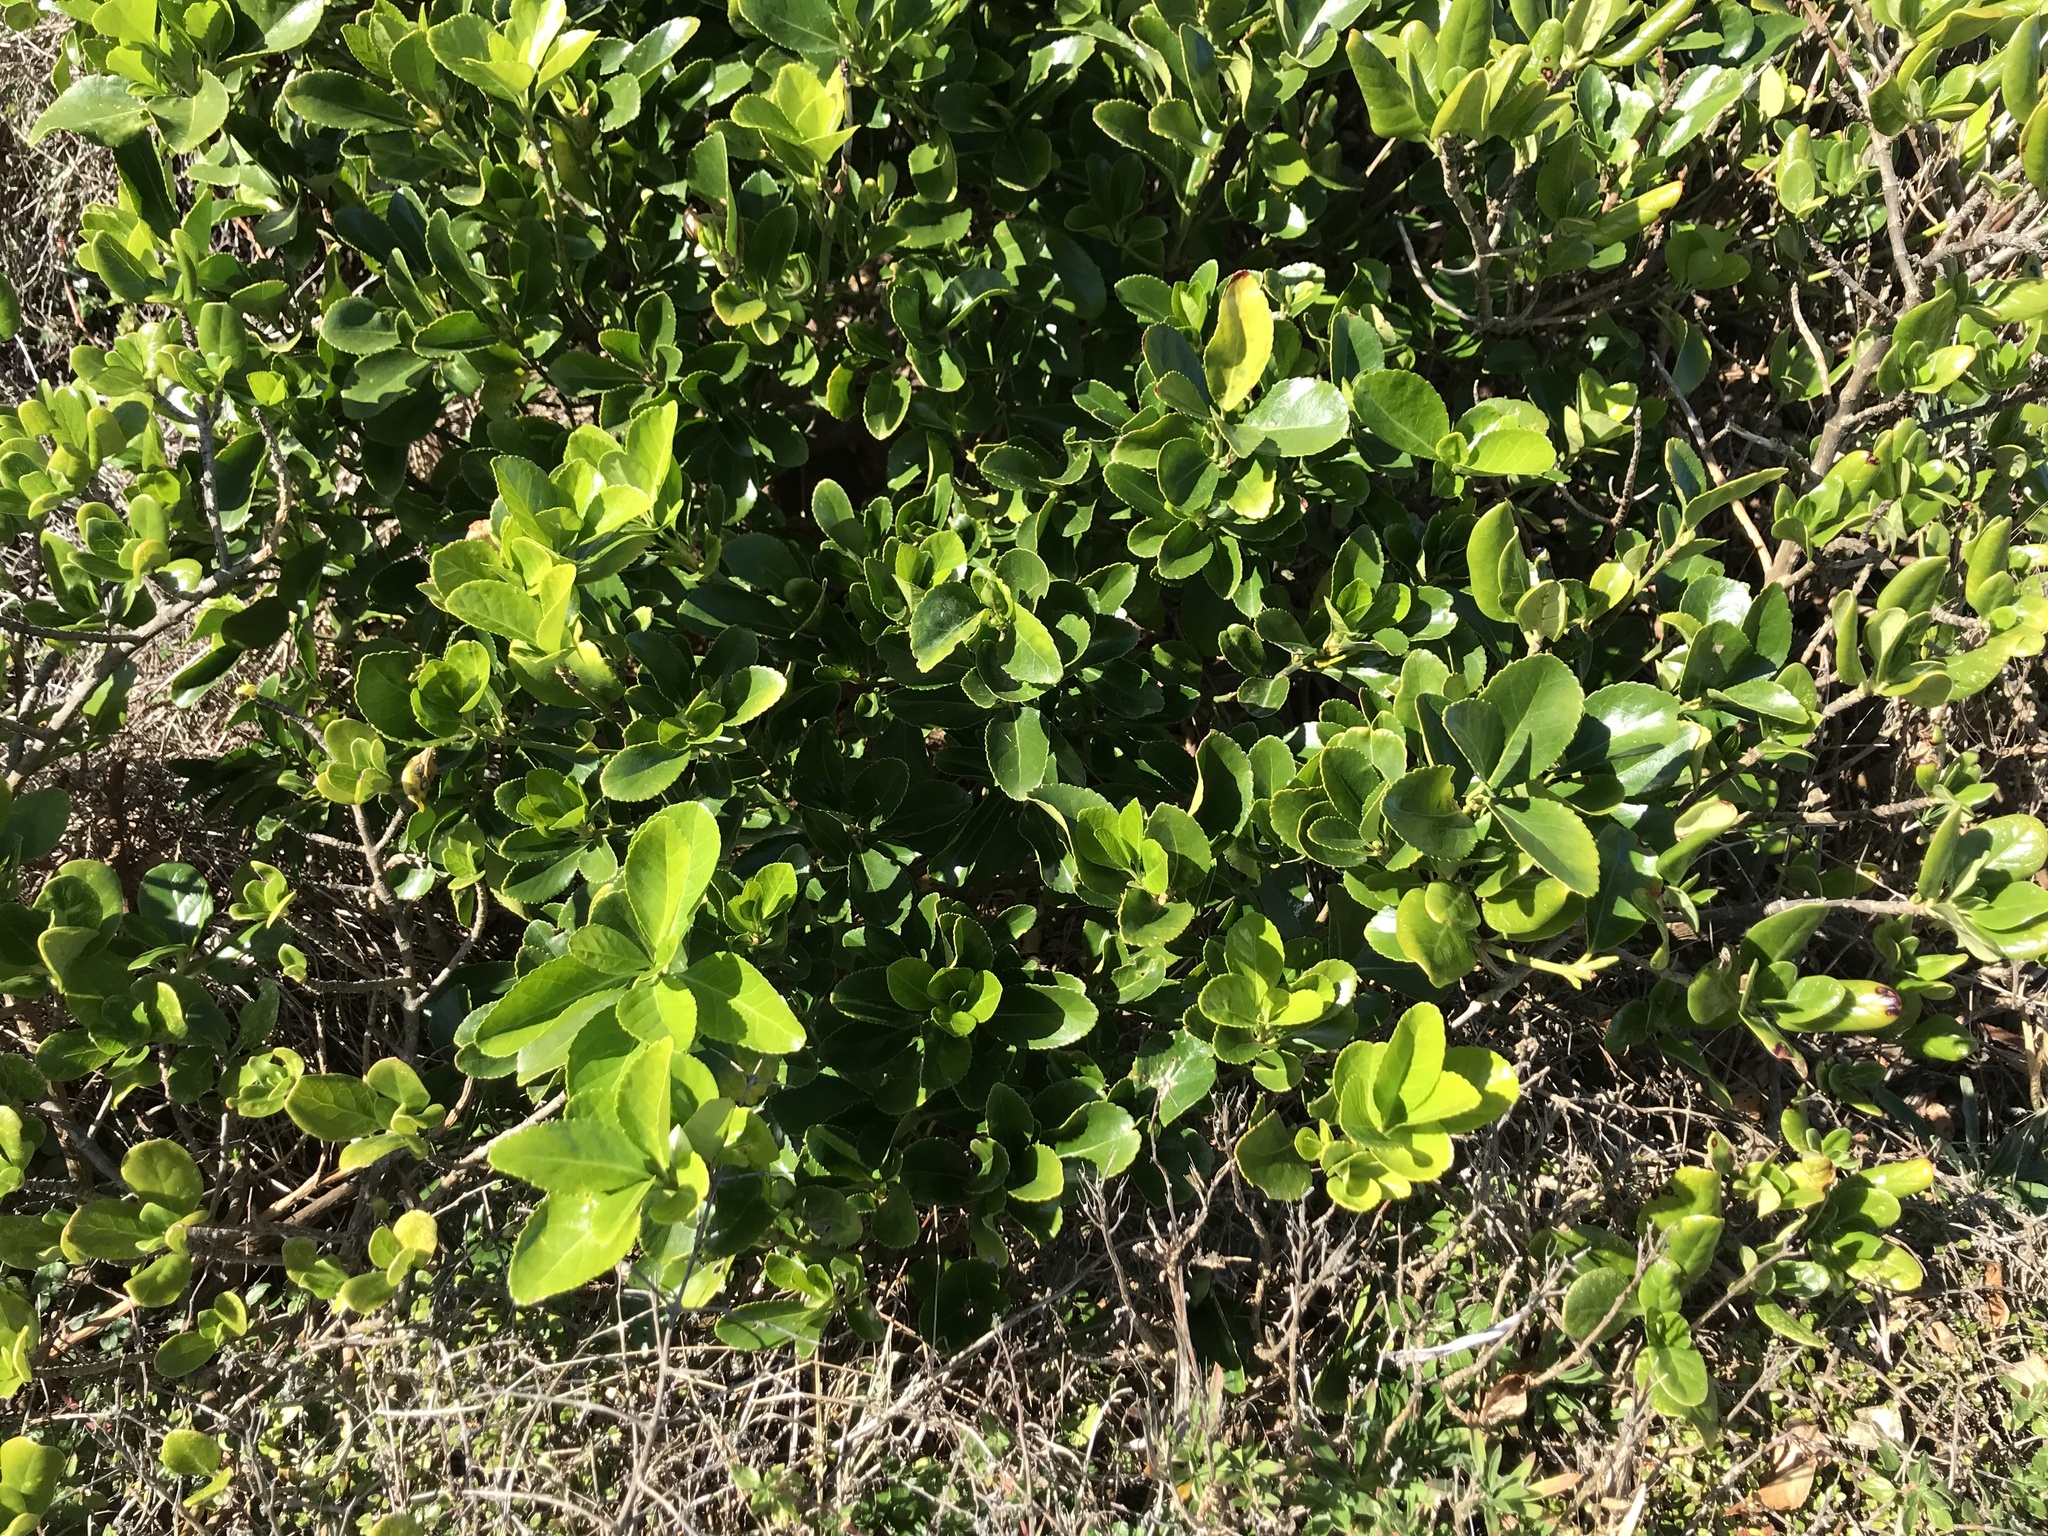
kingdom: Plantae
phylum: Tracheophyta
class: Magnoliopsida
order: Celastrales
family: Celastraceae
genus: Euonymus
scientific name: Euonymus japonicus
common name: Japanese spindletree
